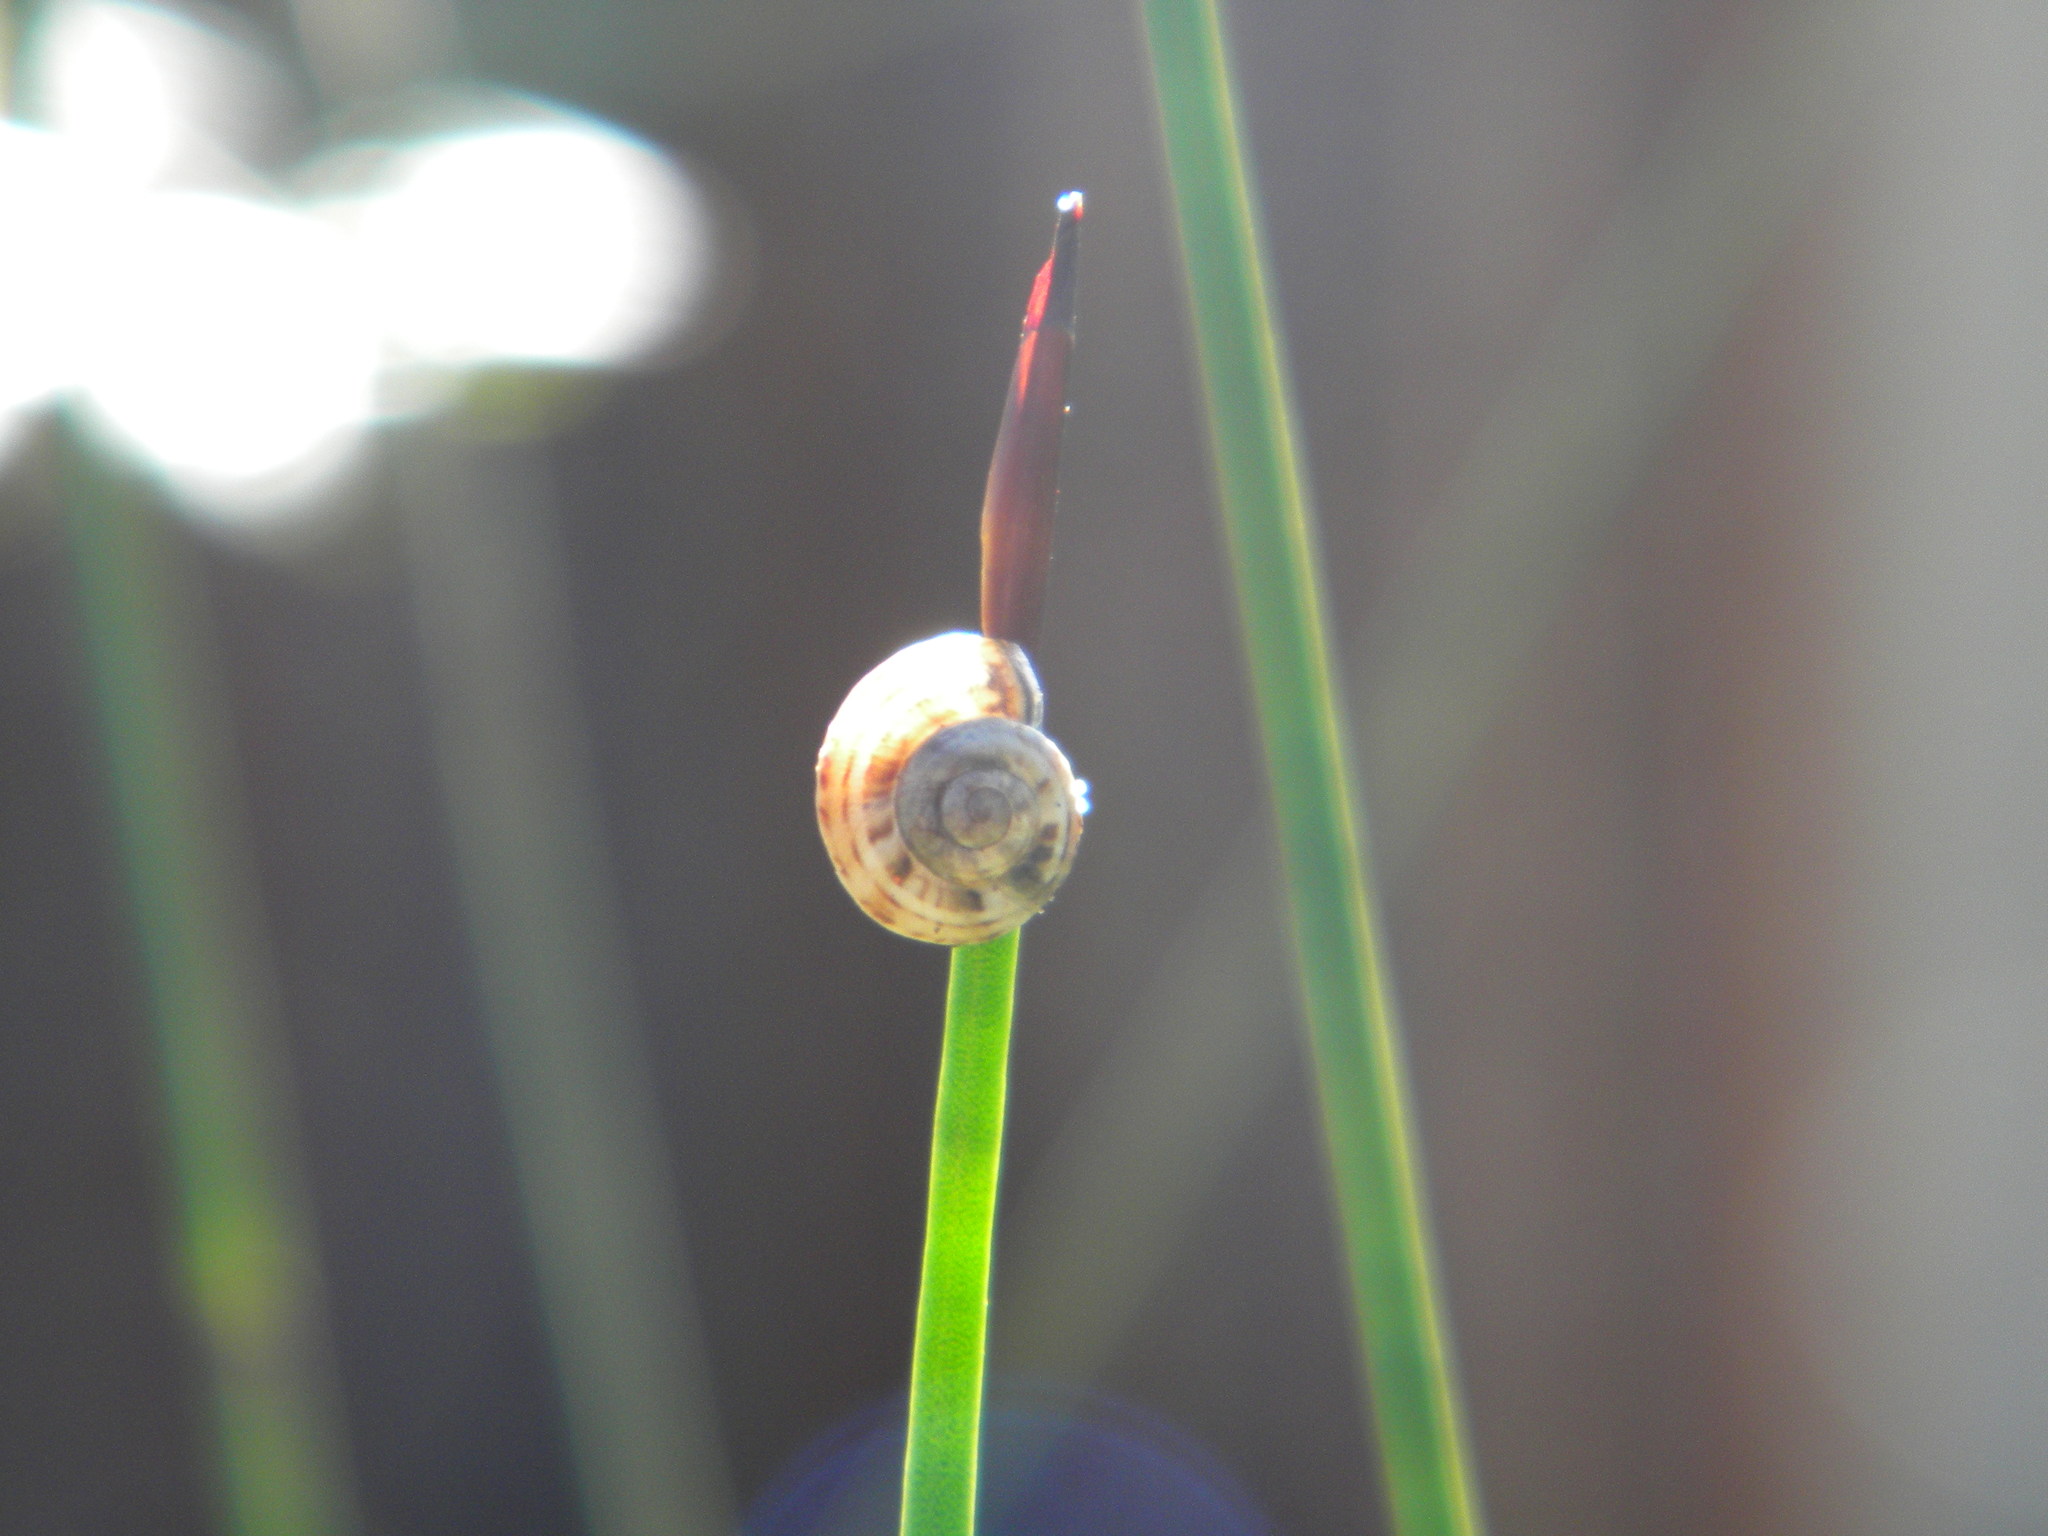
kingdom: Animalia
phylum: Mollusca
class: Gastropoda
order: Stylommatophora
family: Helicidae
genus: Theba
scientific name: Theba pisana
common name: White snail
